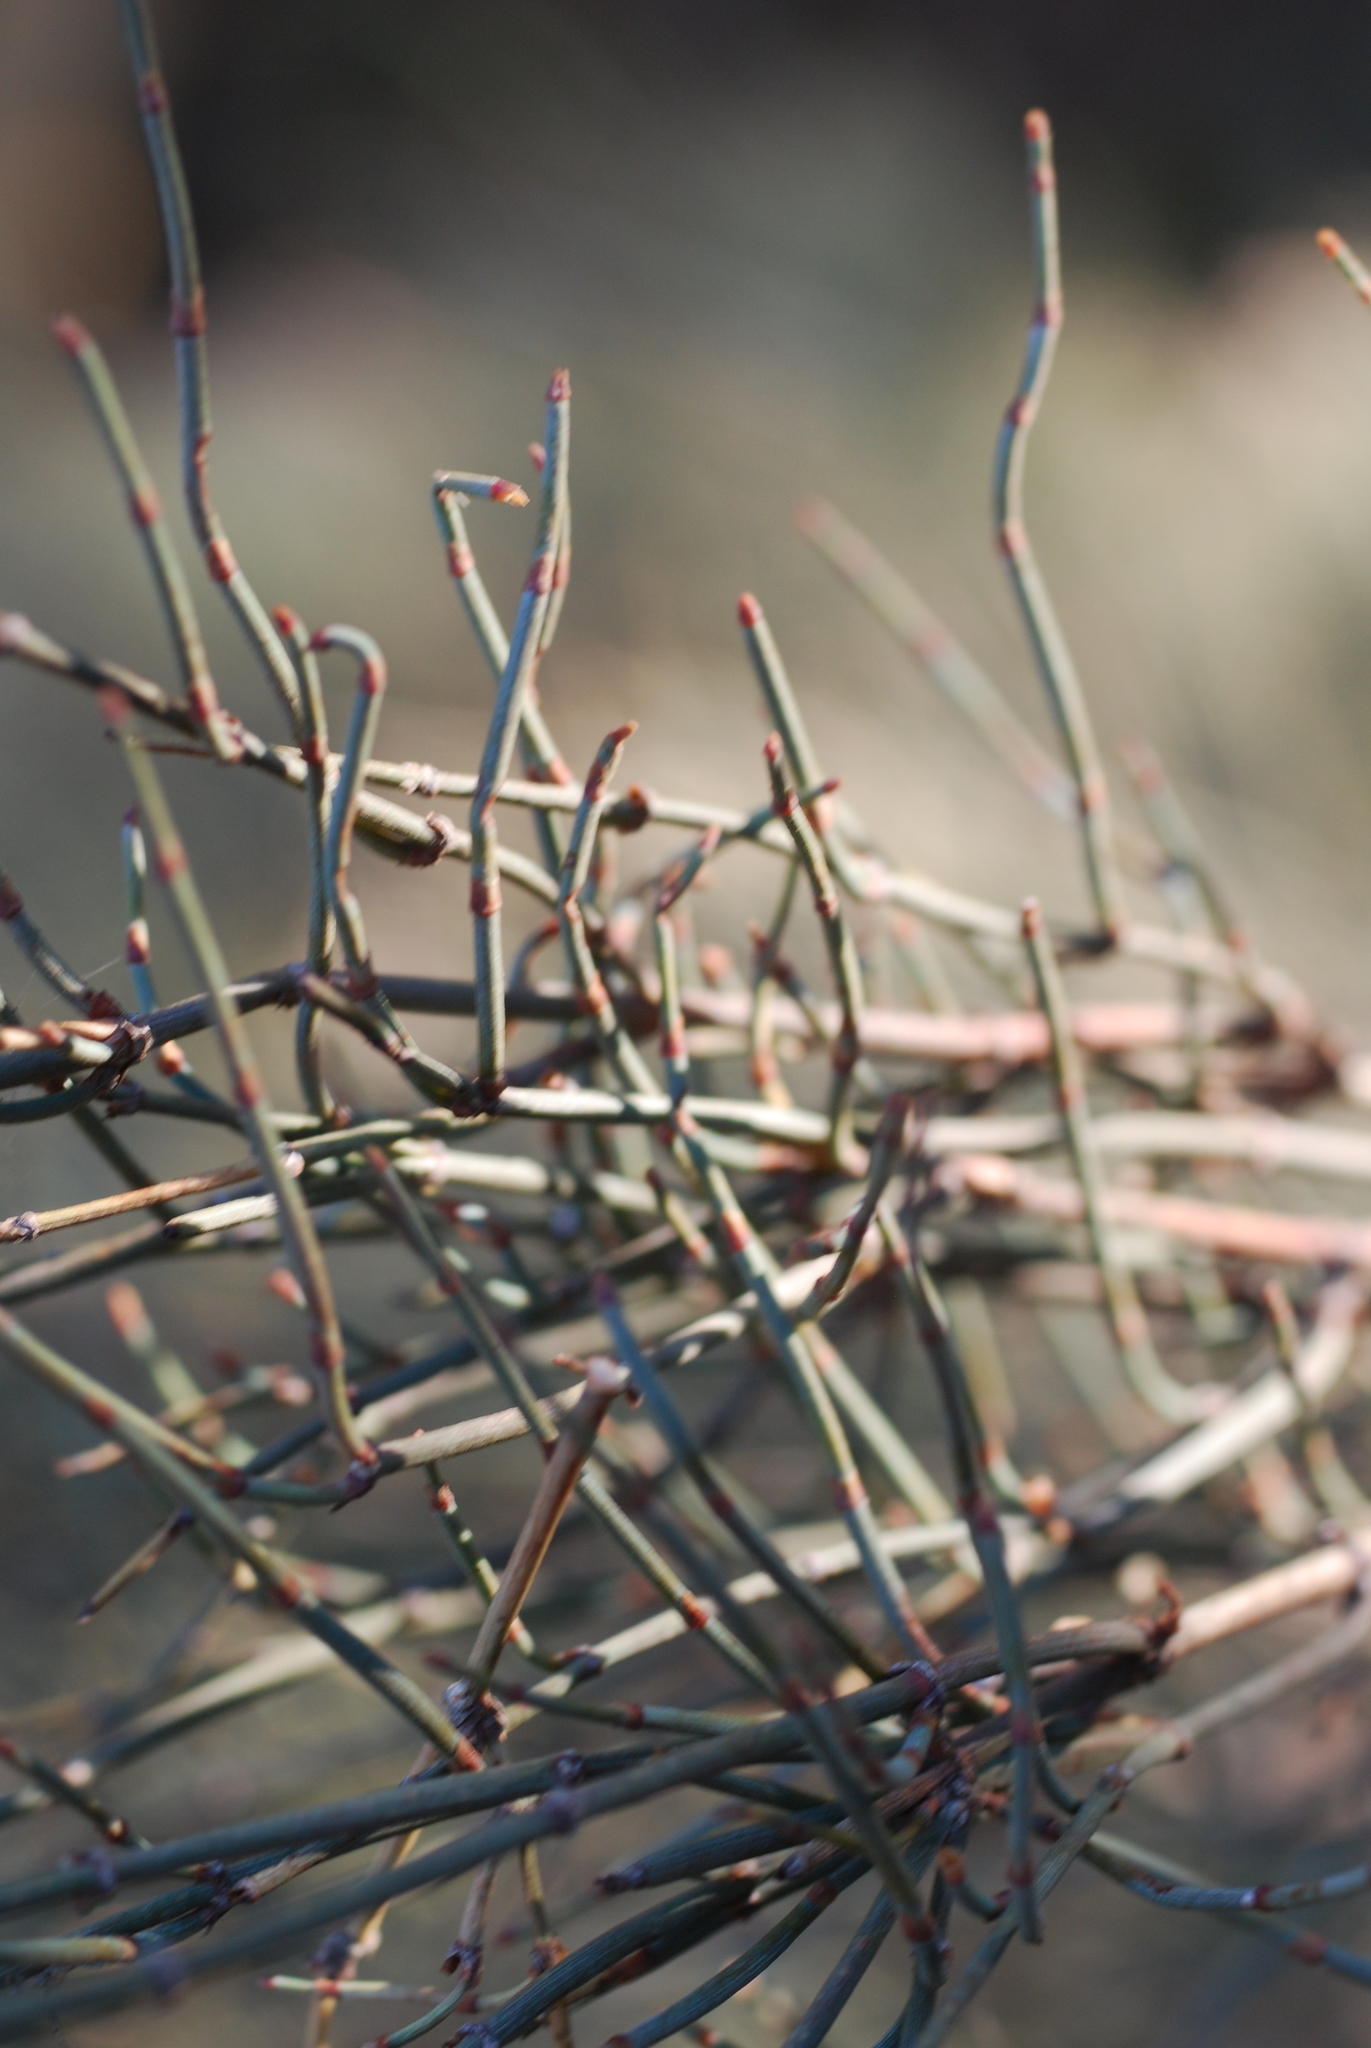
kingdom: Plantae
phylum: Tracheophyta
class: Gnetopsida
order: Ephedrales
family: Ephedraceae
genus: Ephedra
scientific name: Ephedra nebrodensis
